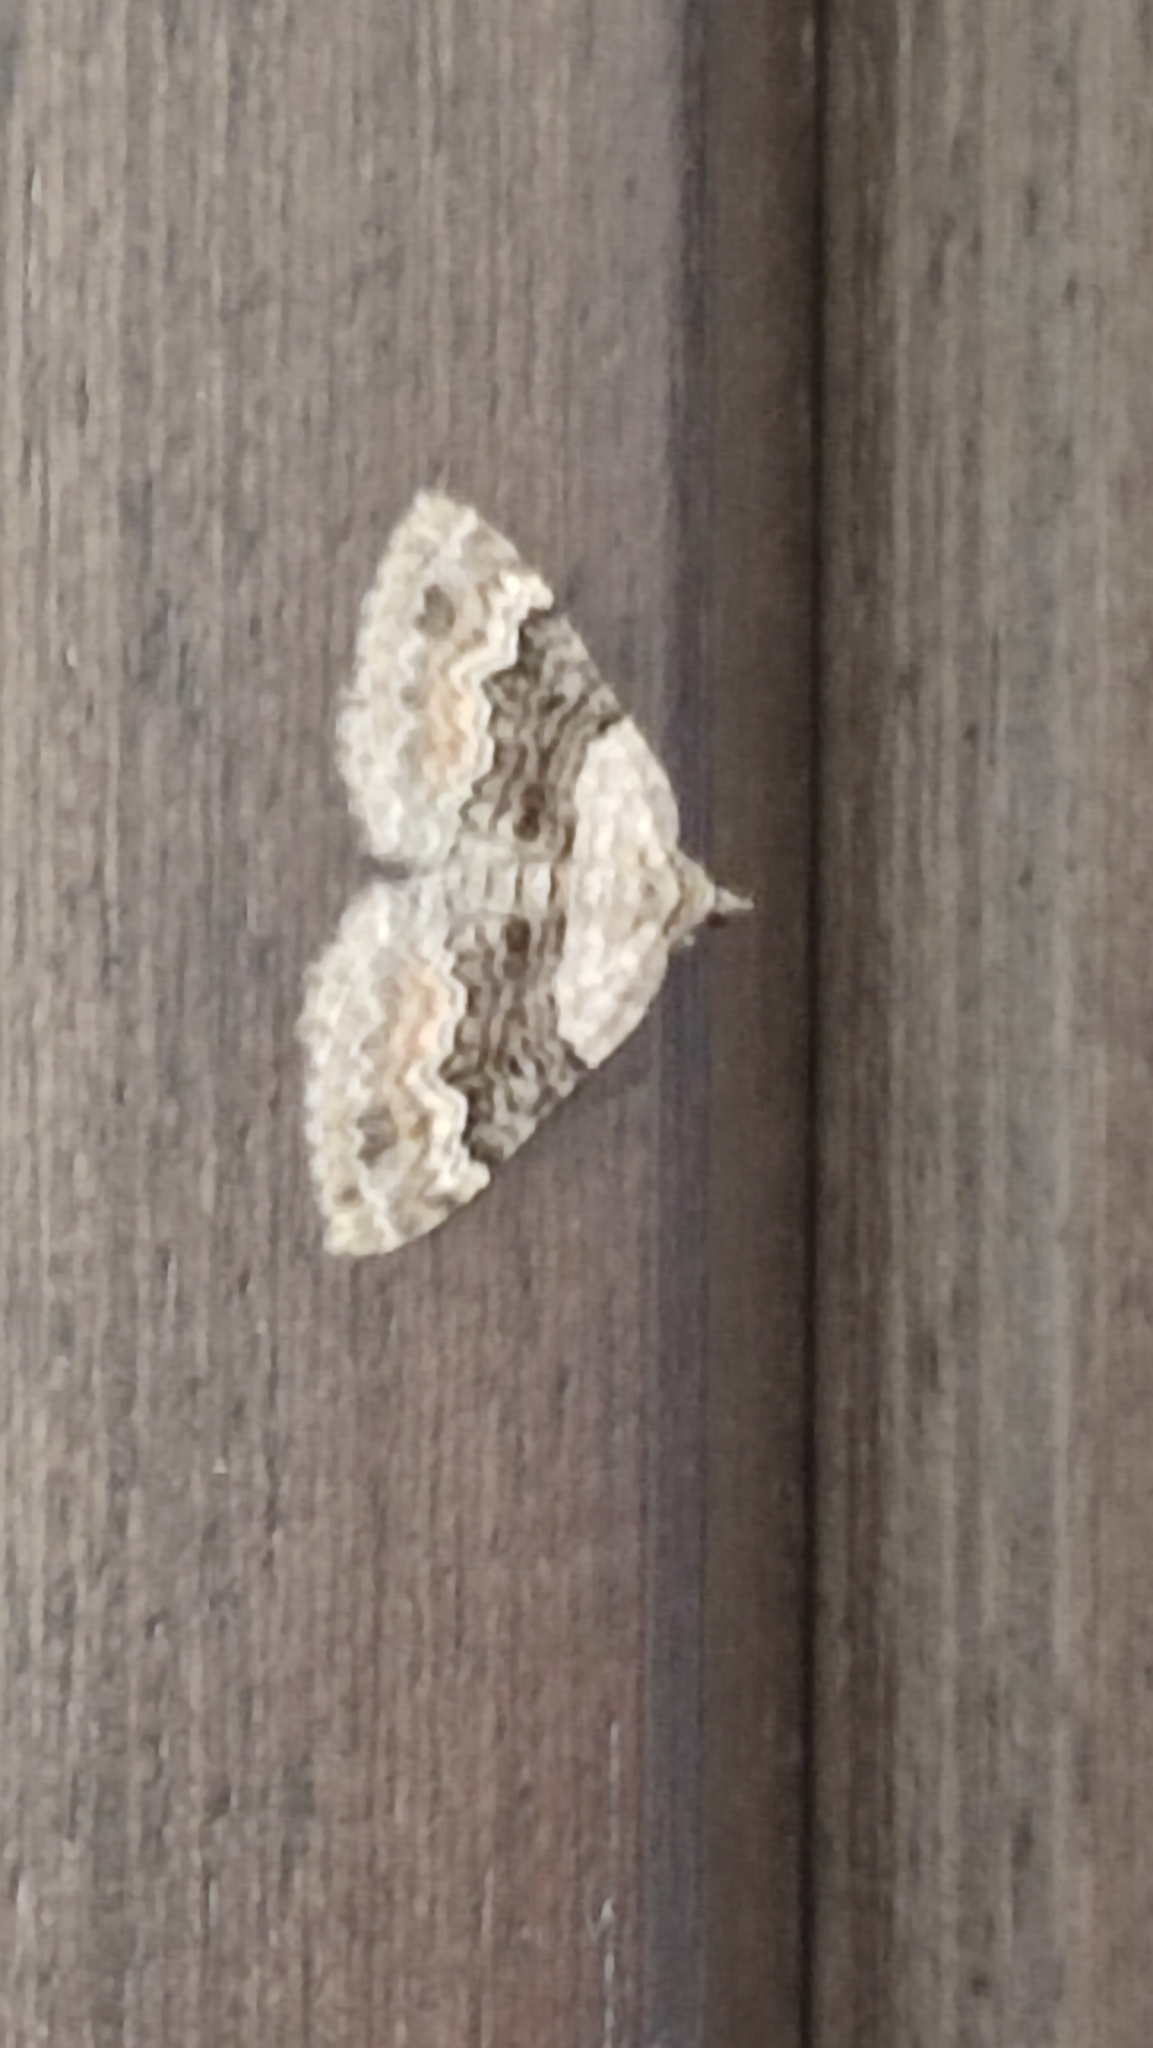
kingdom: Animalia
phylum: Arthropoda
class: Insecta
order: Lepidoptera
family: Geometridae
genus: Xanthorhoe
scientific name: Xanthorhoe quadrifasiata
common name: Large twin-spot carpet
